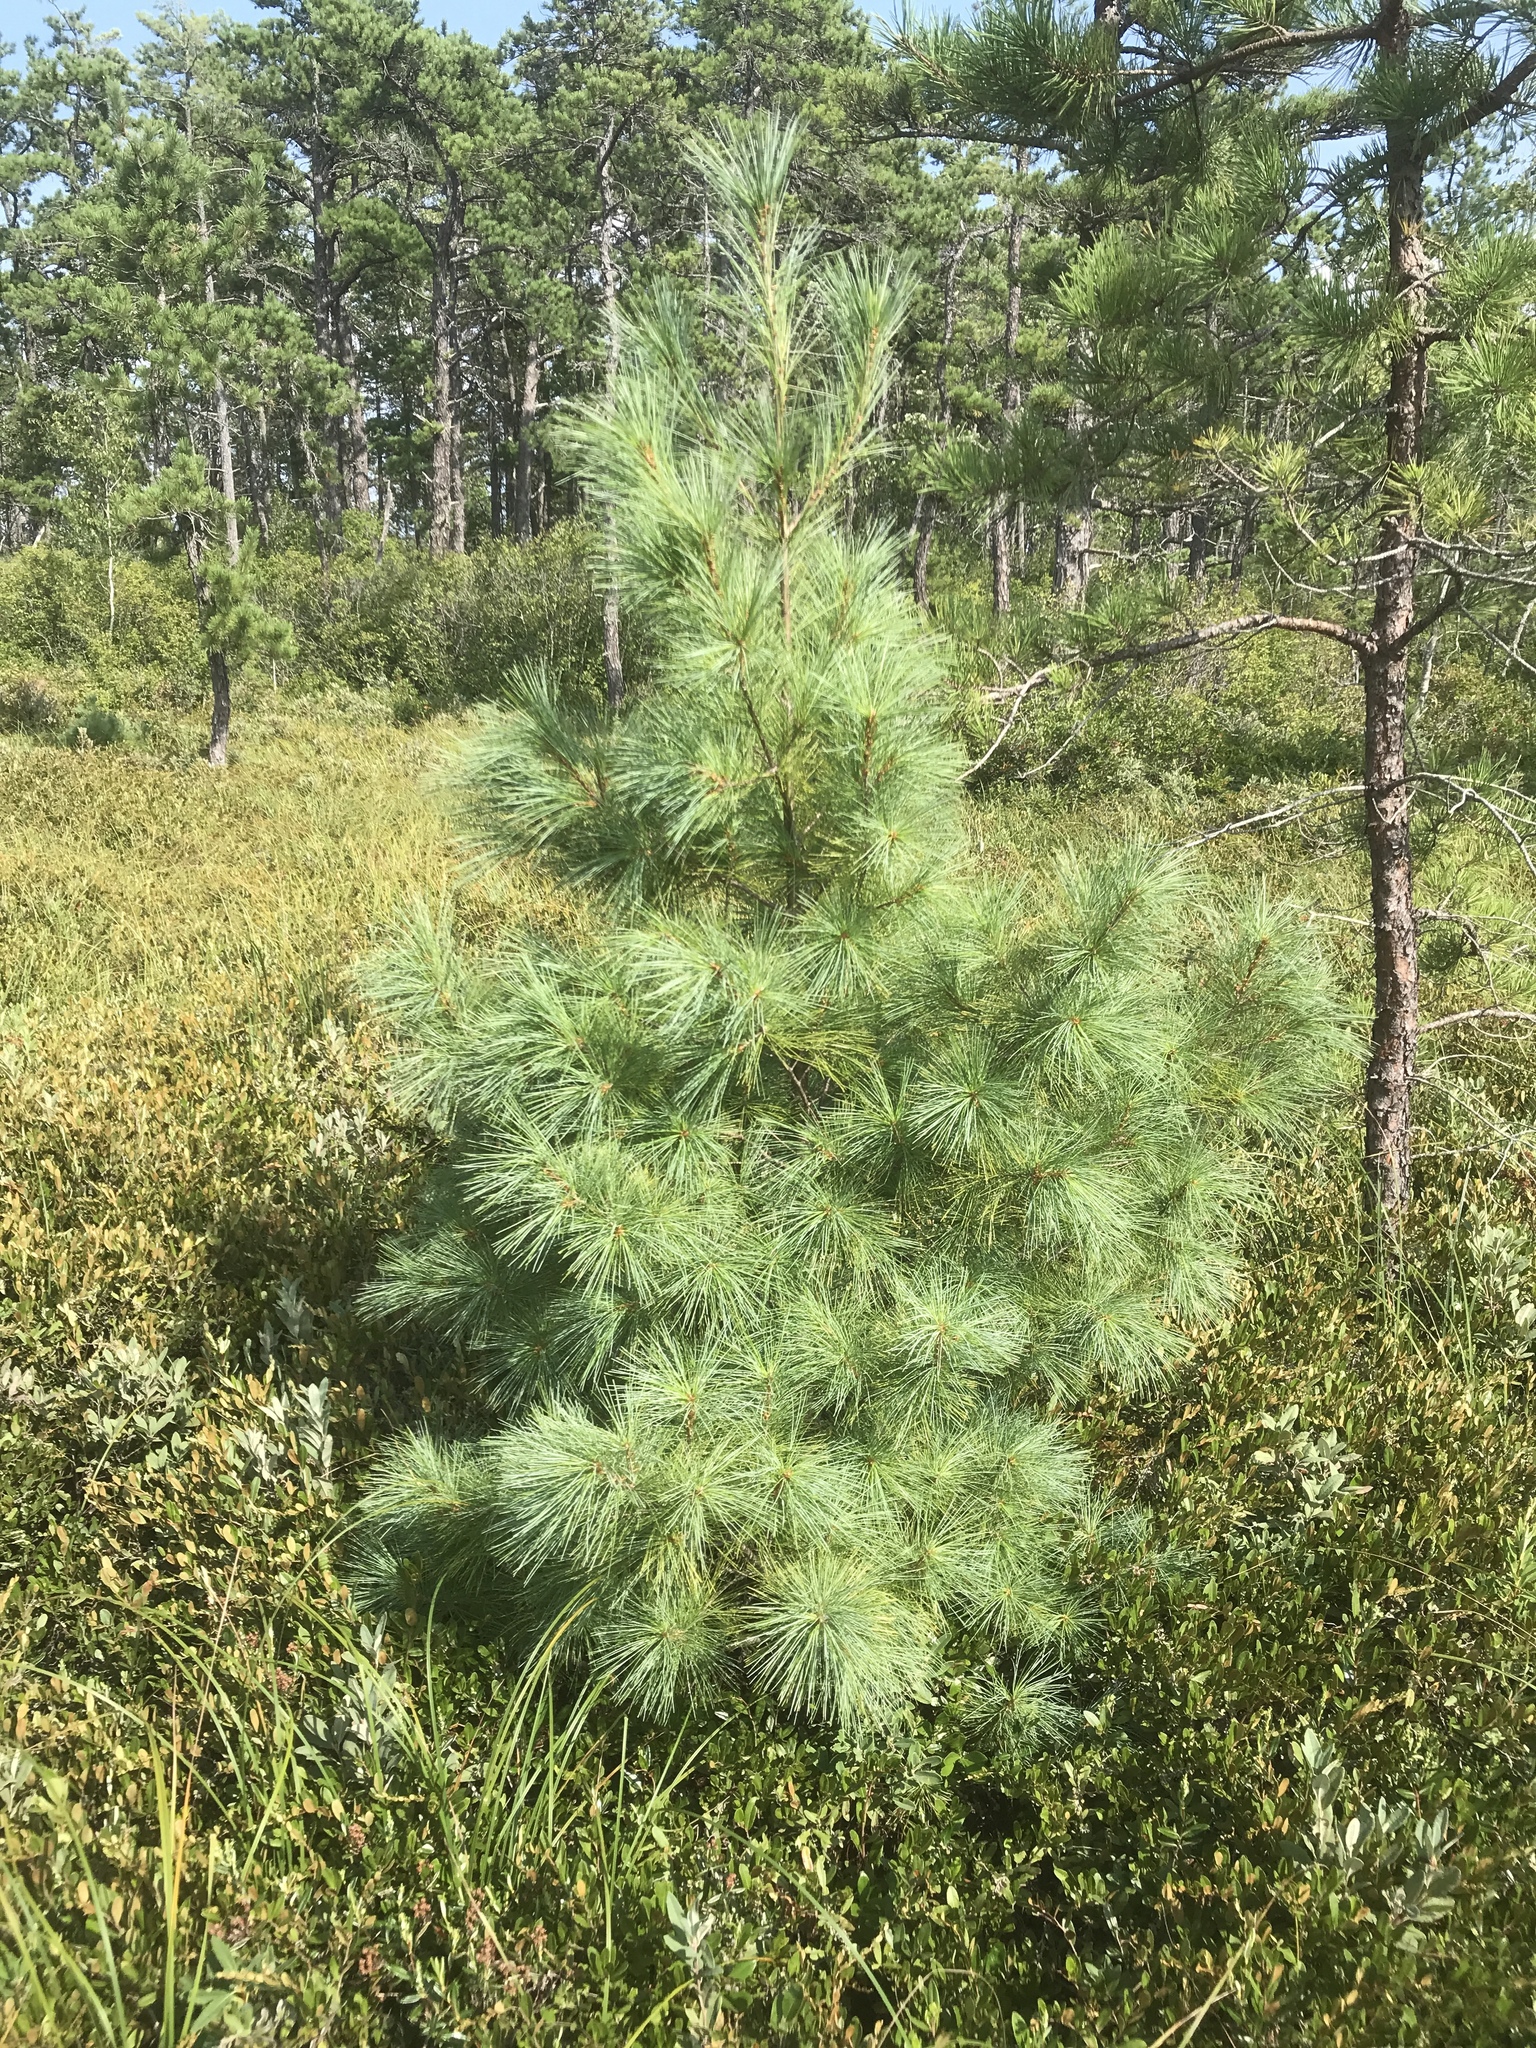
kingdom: Plantae
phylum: Tracheophyta
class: Pinopsida
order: Pinales
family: Pinaceae
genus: Pinus
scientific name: Pinus strobus
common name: Weymouth pine
